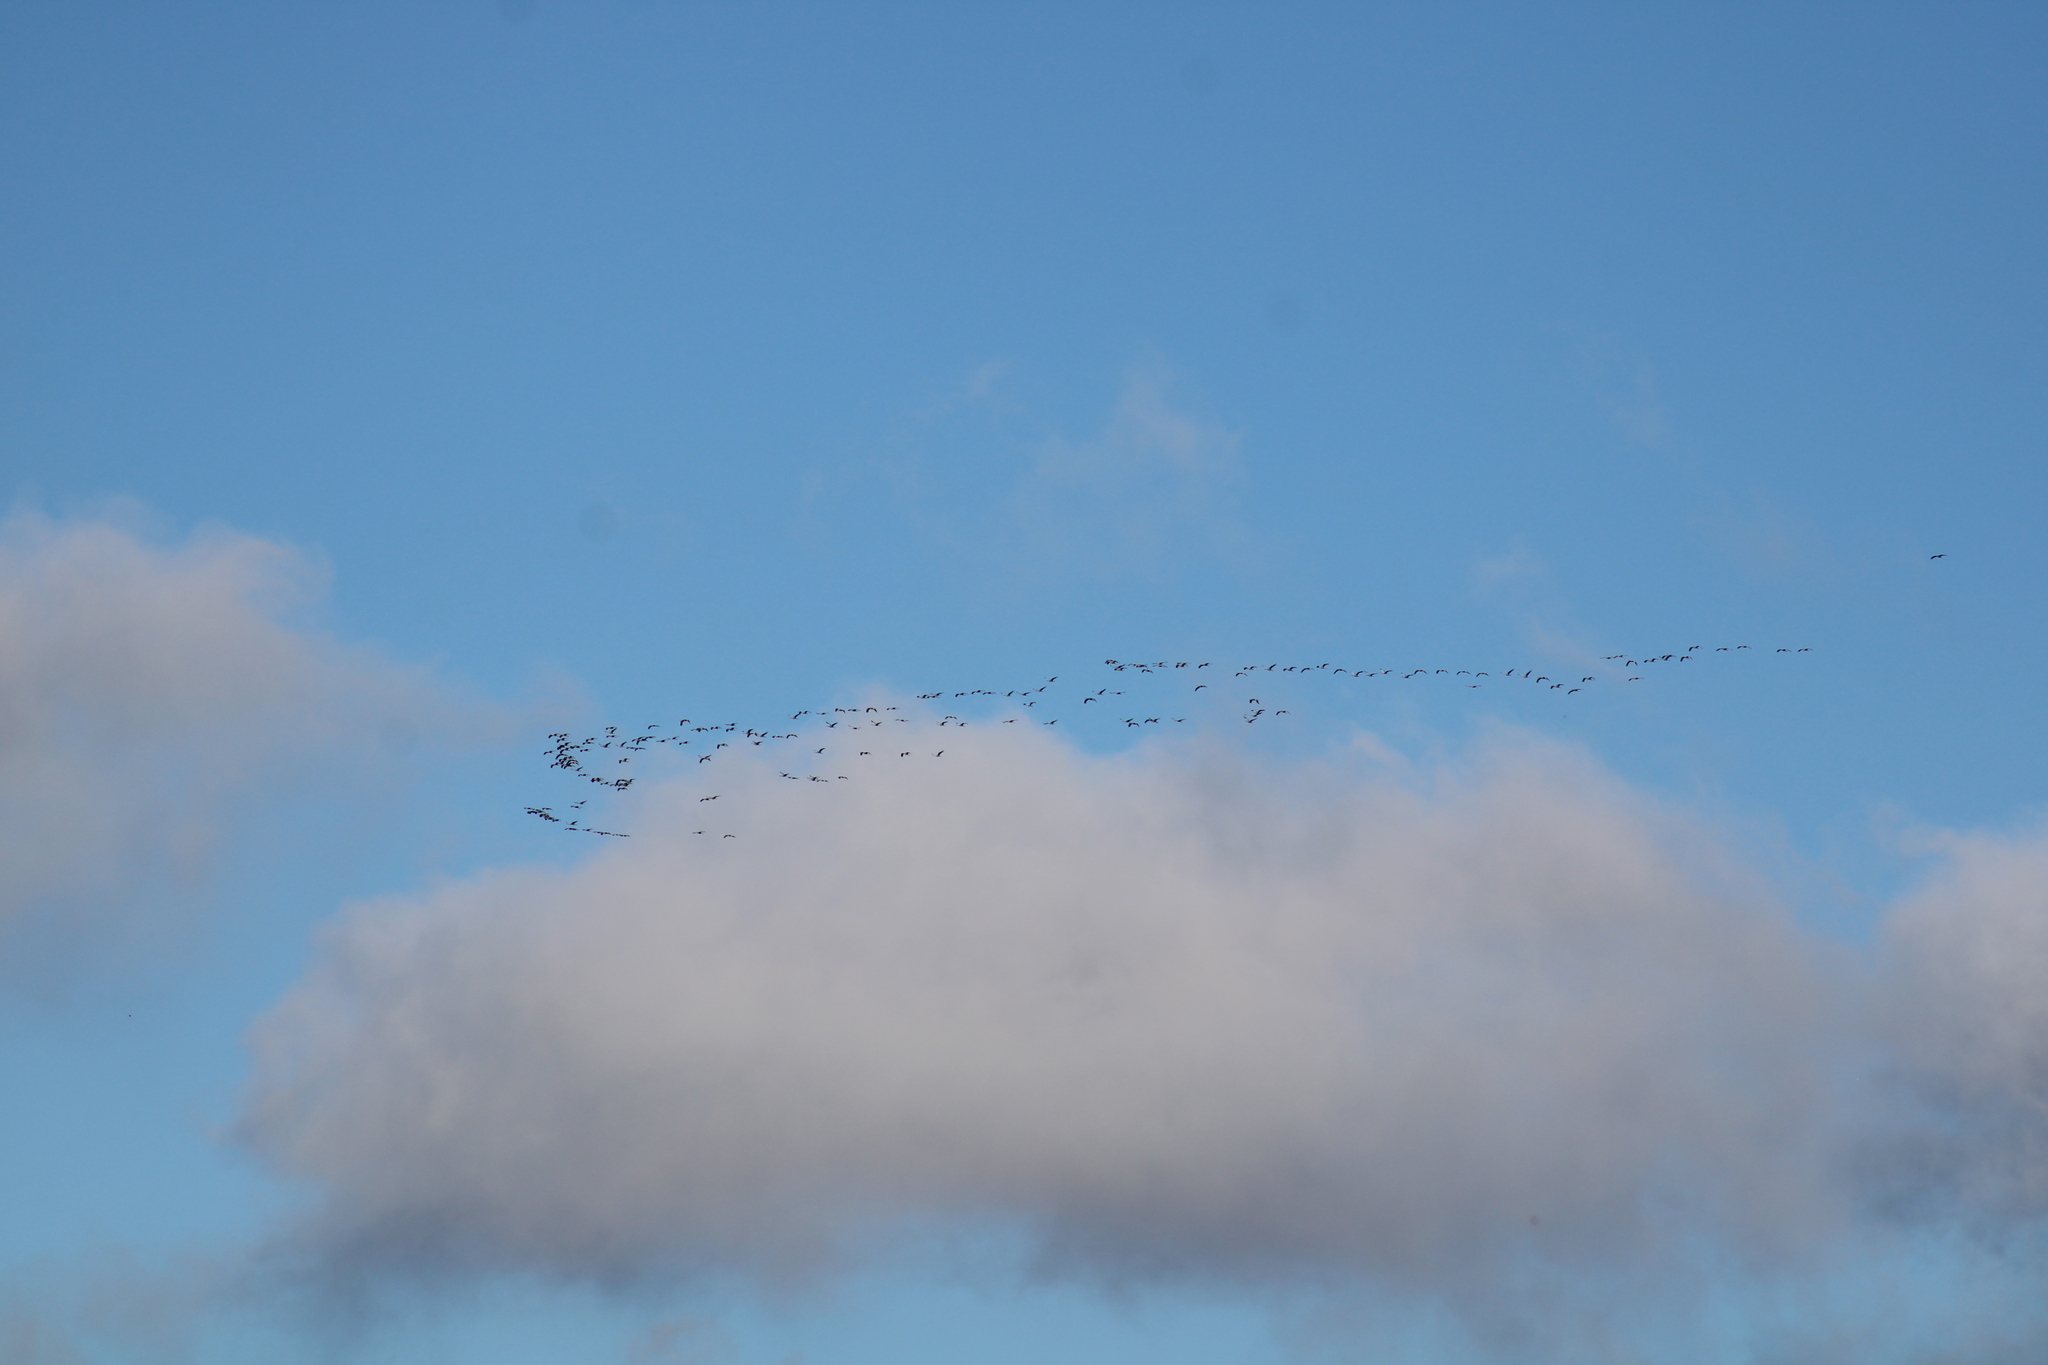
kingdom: Animalia
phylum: Chordata
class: Aves
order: Gruiformes
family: Gruidae
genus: Grus
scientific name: Grus grus
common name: Common crane
